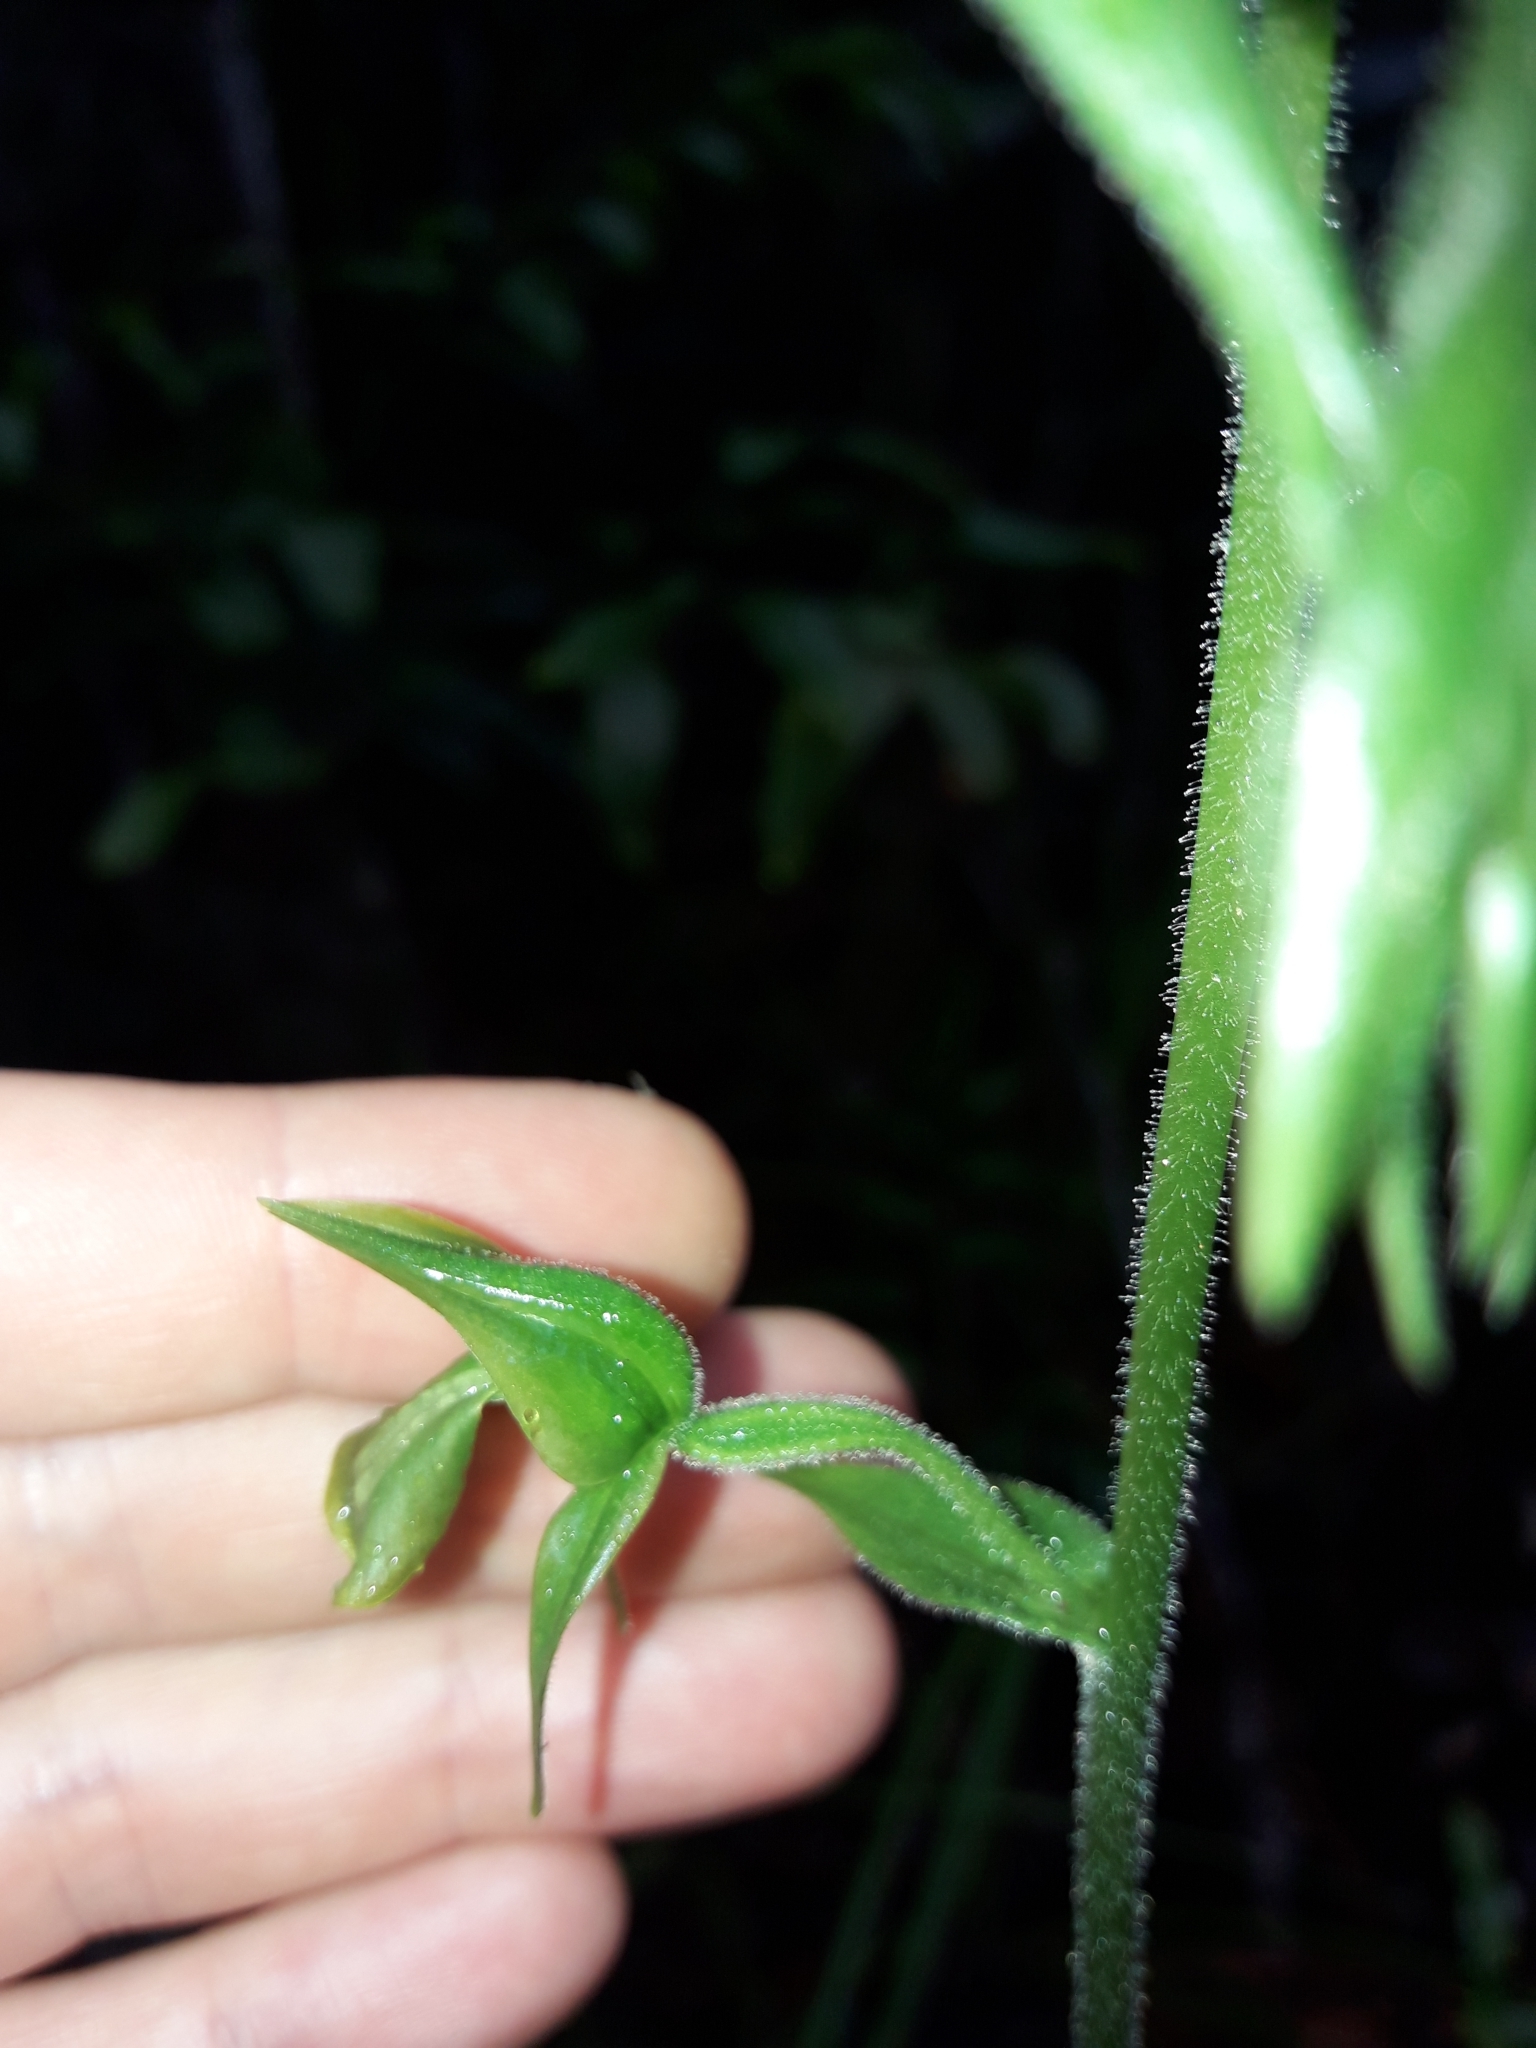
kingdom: Plantae
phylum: Tracheophyta
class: Liliopsida
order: Asparagales
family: Orchidaceae
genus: Achlydosa
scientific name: Achlydosa glandulosa
